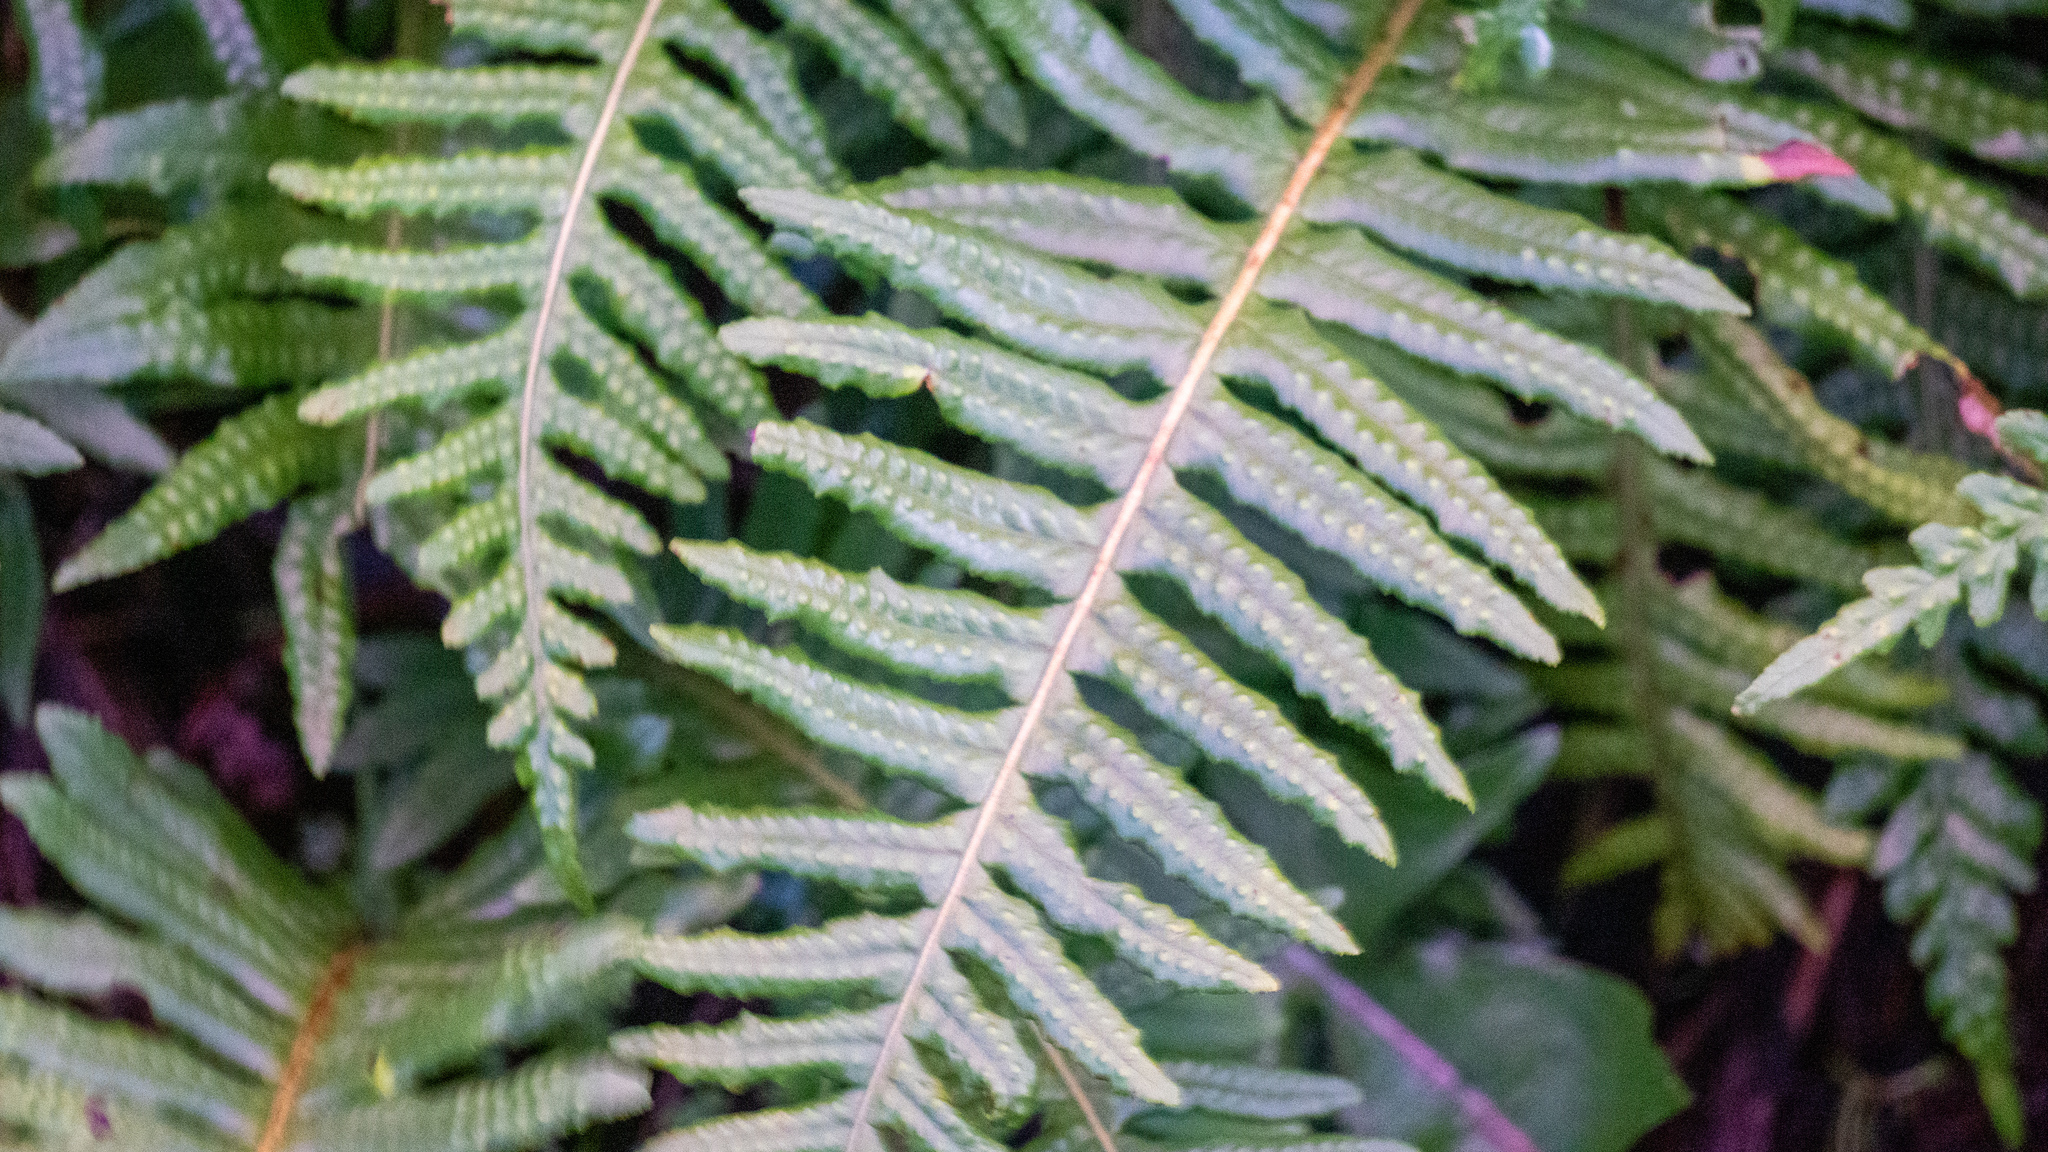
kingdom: Plantae
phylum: Tracheophyta
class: Polypodiopsida
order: Polypodiales
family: Polypodiaceae
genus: Polypodium
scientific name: Polypodium glycyrrhiza
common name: Licorice fern
